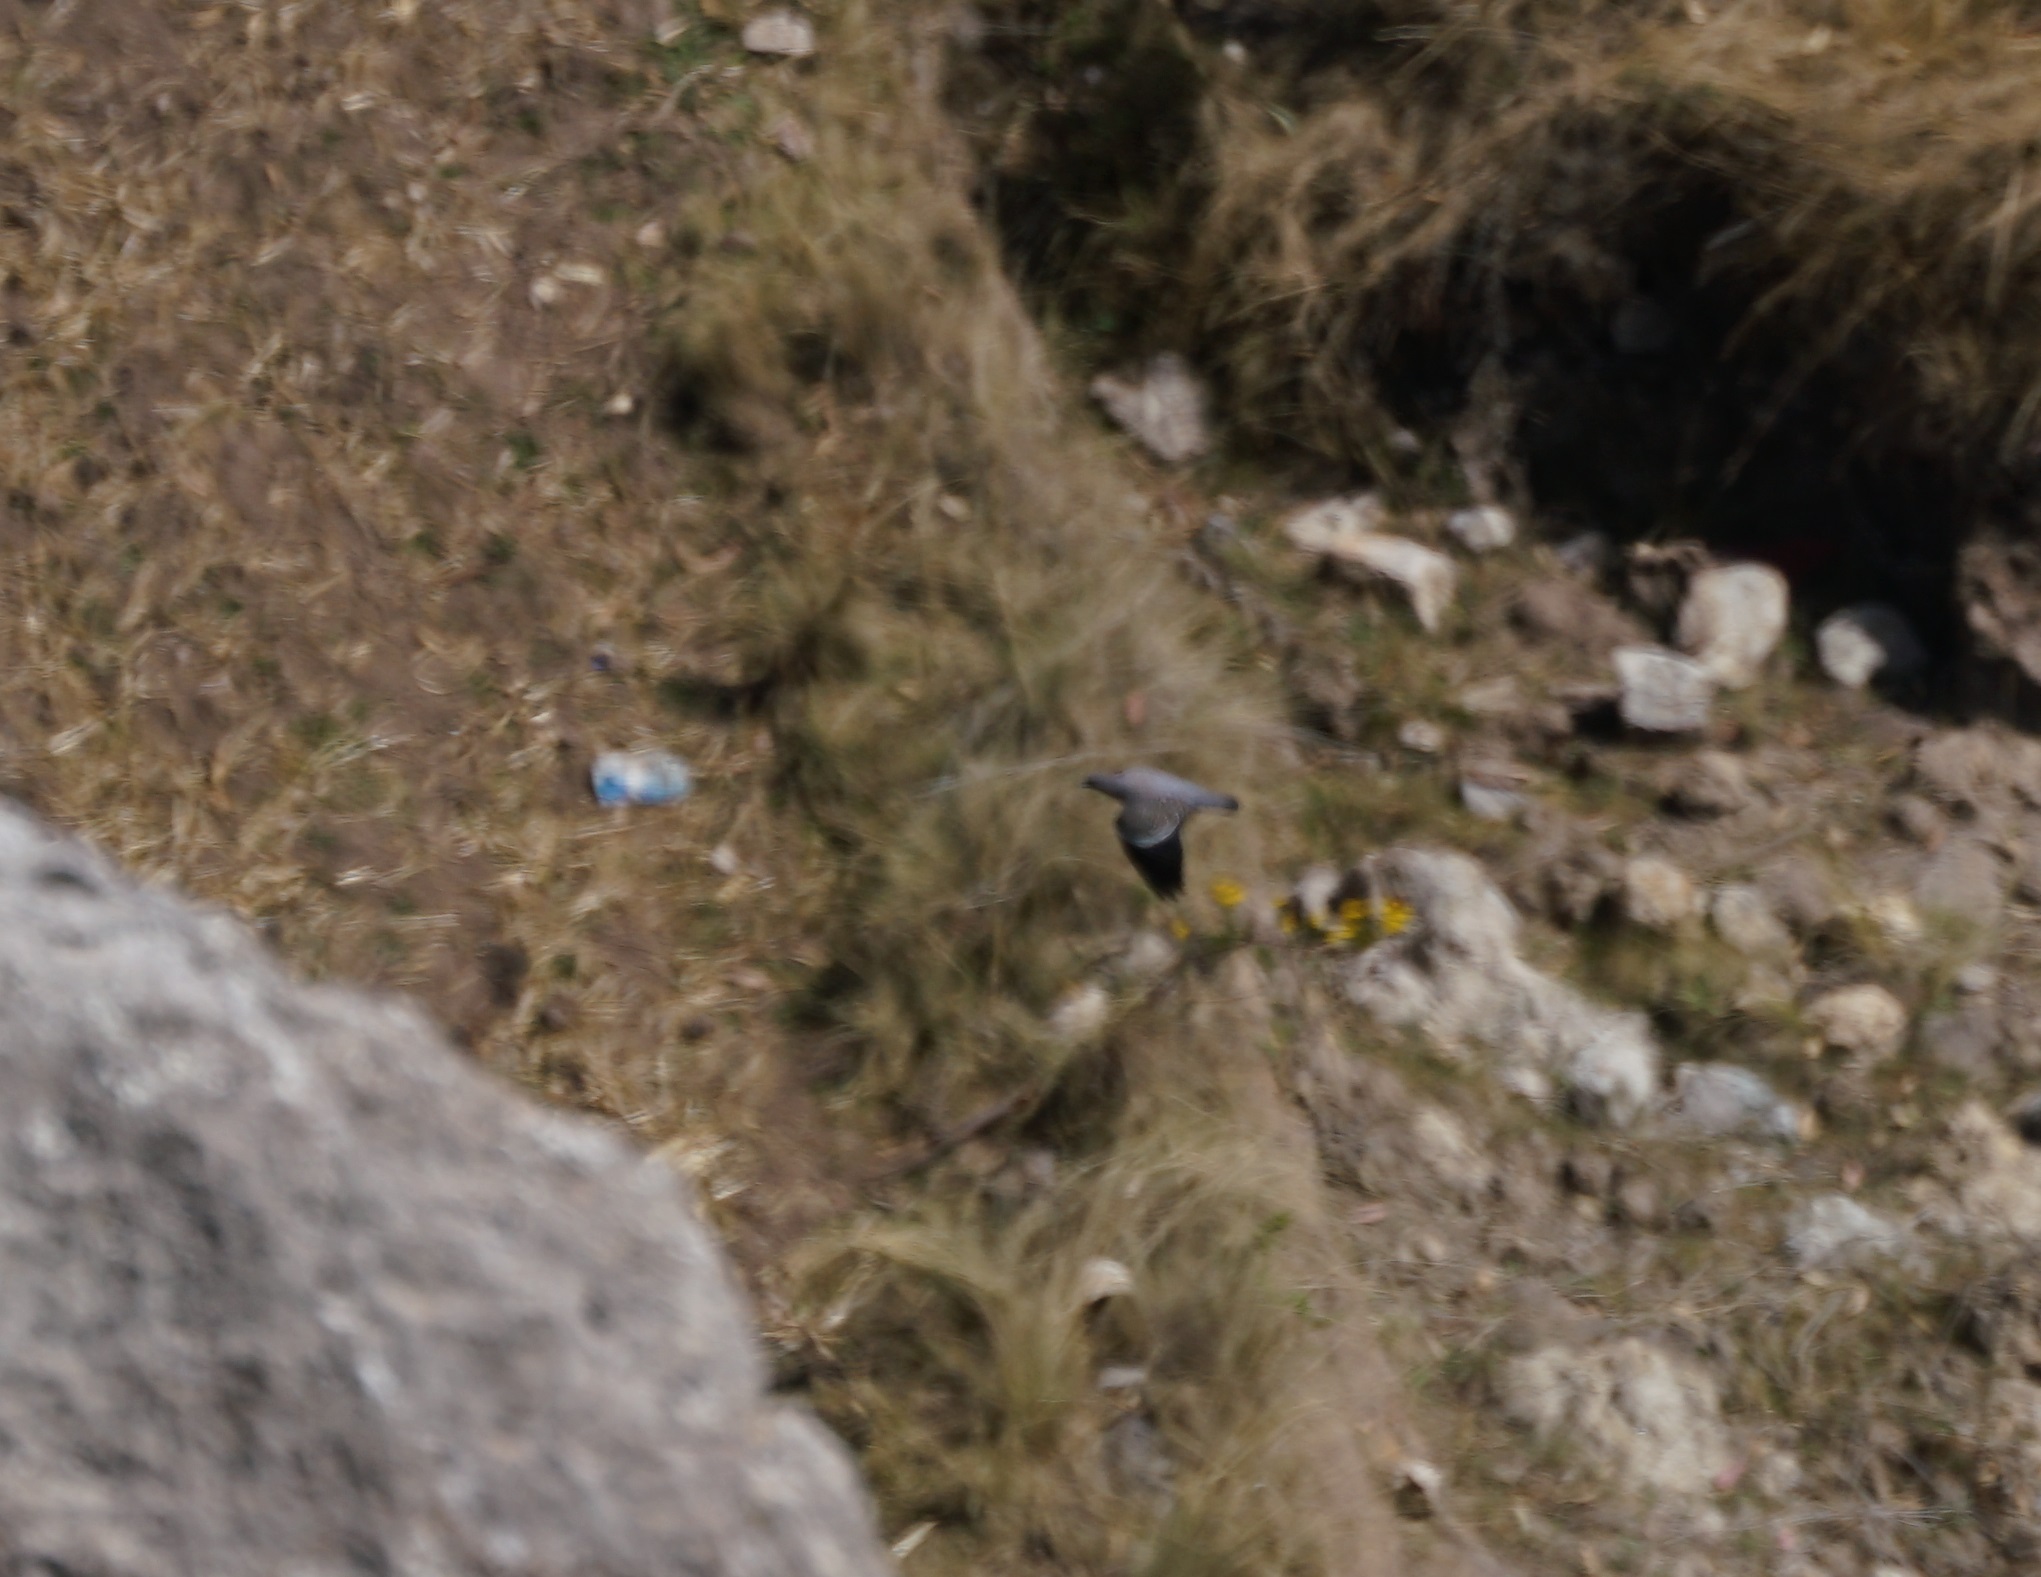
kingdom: Animalia
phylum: Chordata
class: Aves
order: Columbiformes
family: Columbidae
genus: Patagioenas
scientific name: Patagioenas maculosa
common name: Spot-winged pigeon
